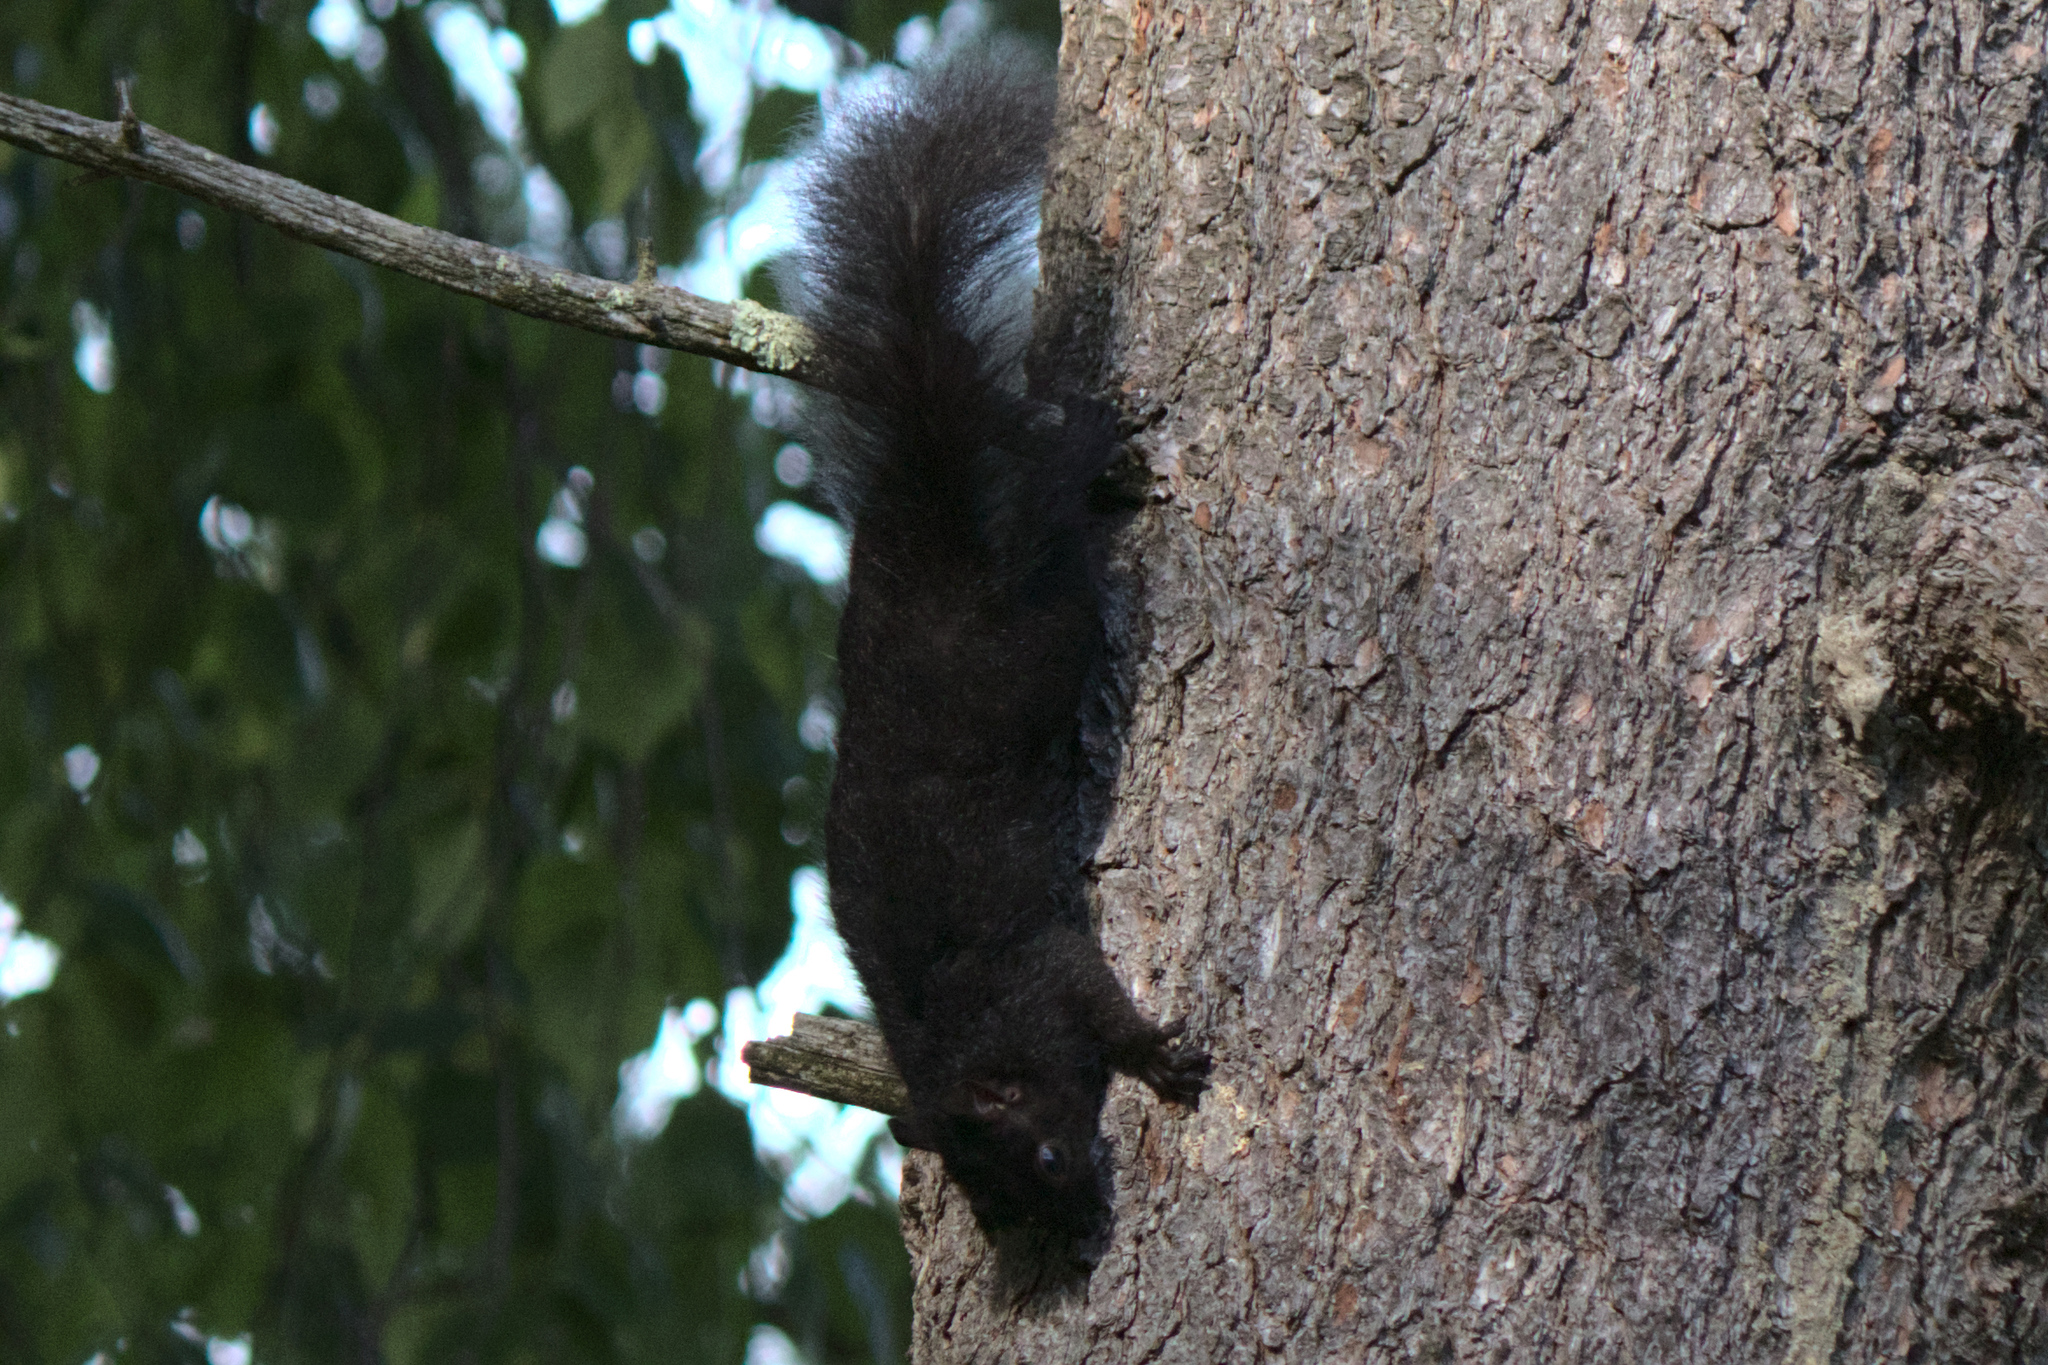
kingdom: Animalia
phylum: Chordata
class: Mammalia
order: Rodentia
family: Sciuridae
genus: Sciurus
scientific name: Sciurus carolinensis
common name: Eastern gray squirrel
